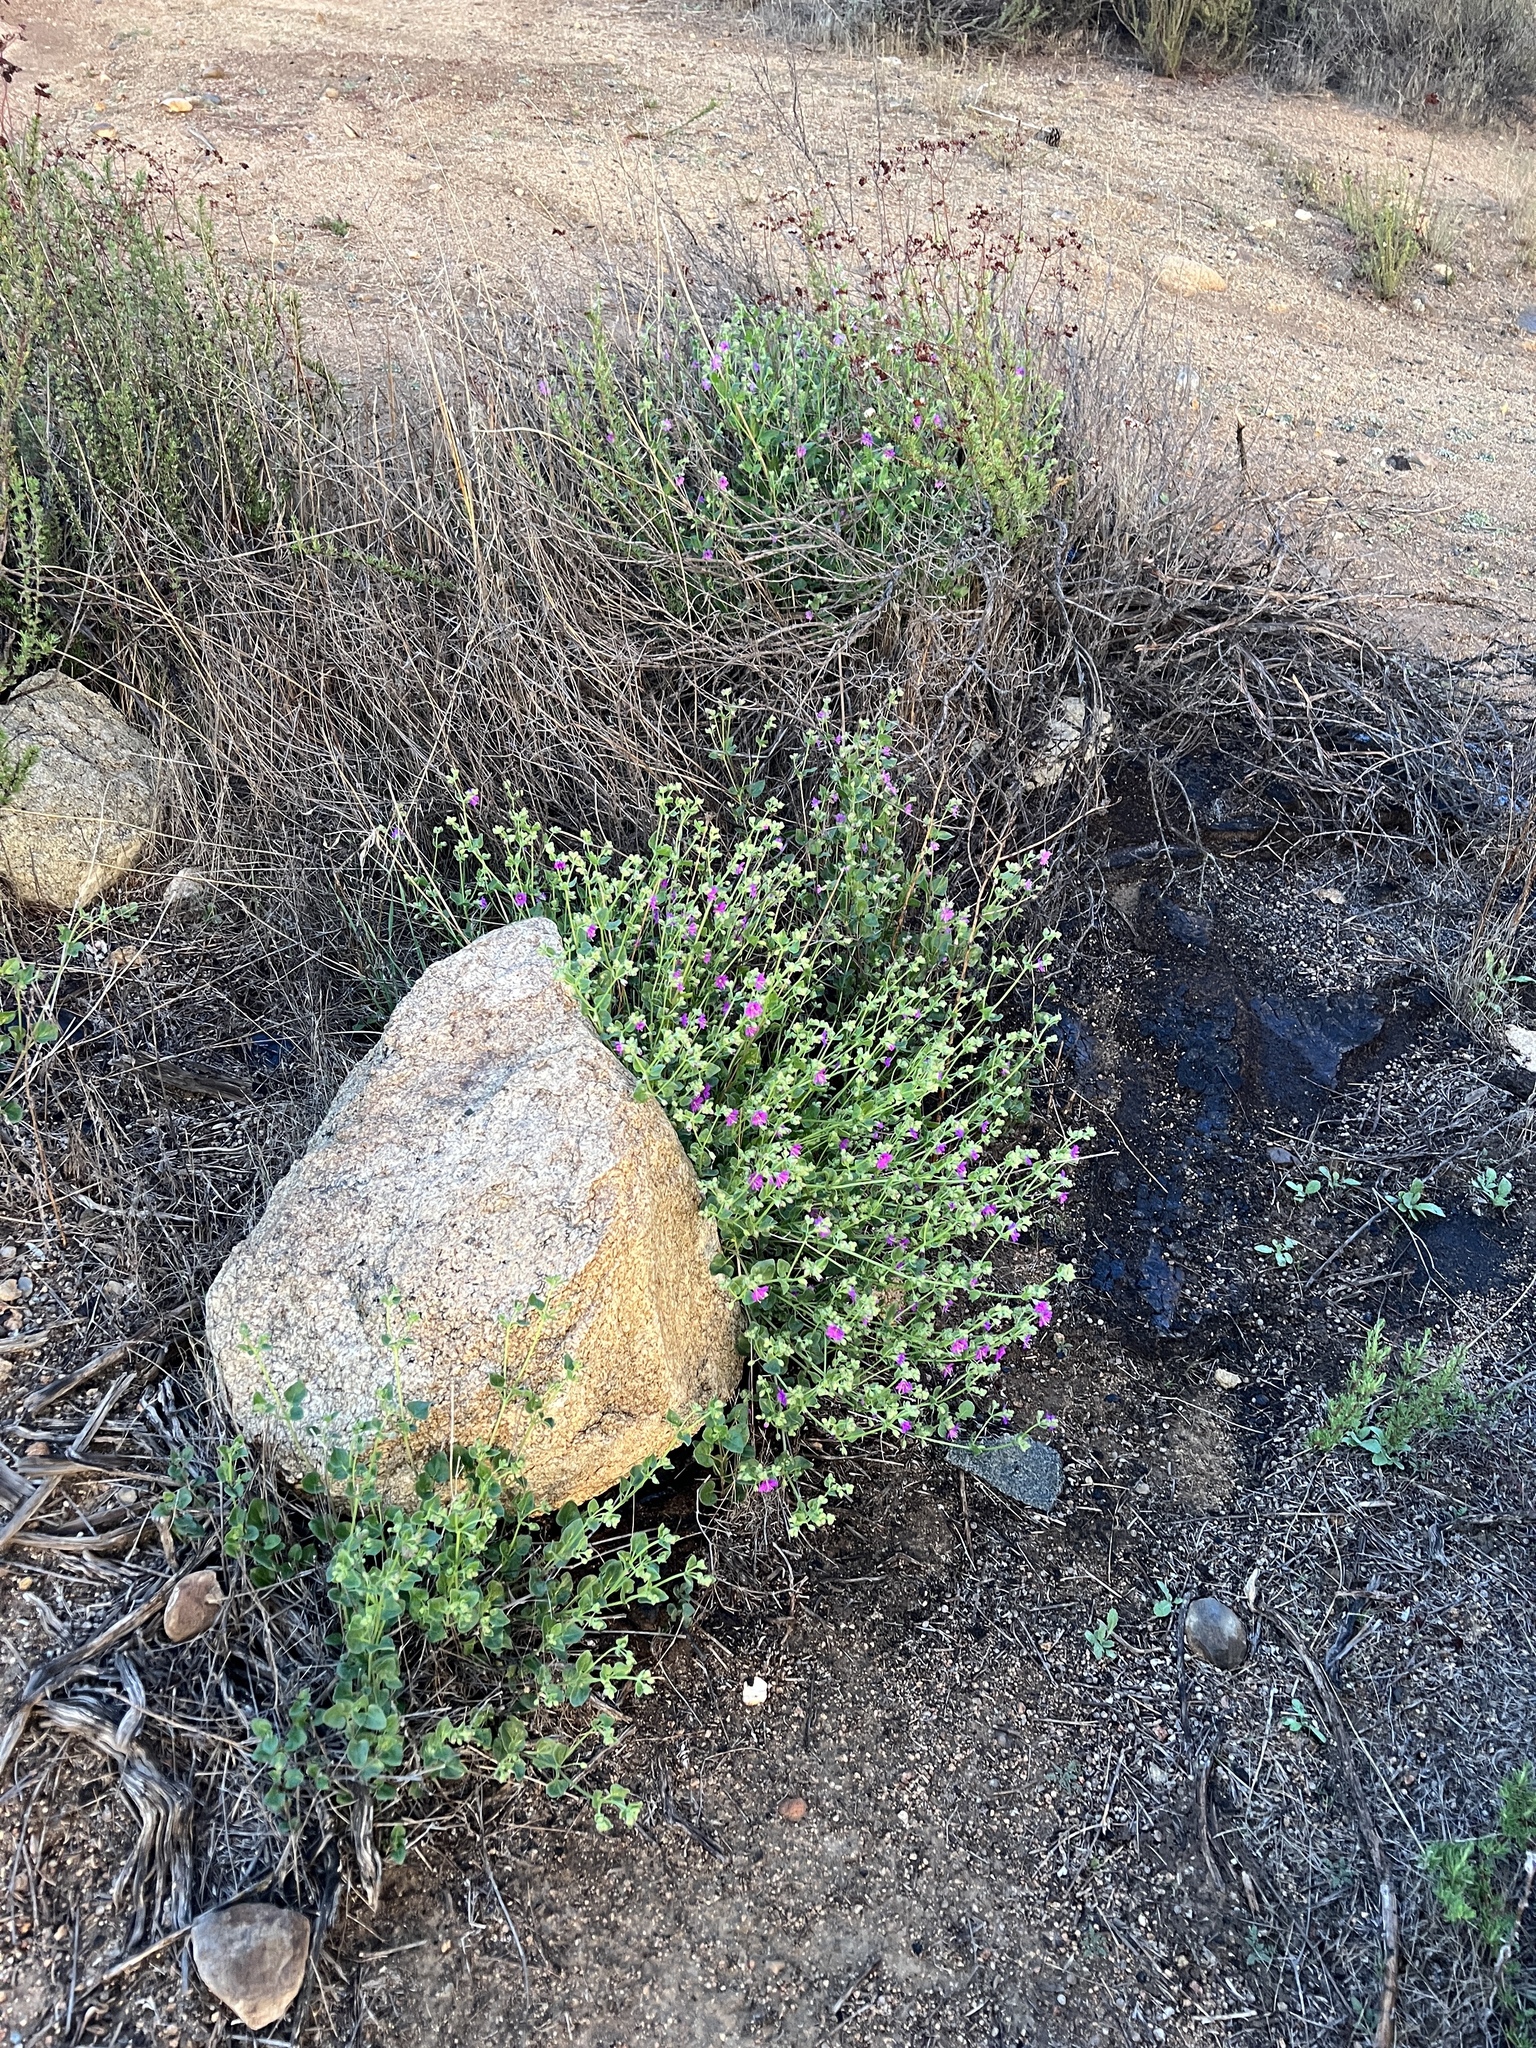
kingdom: Plantae
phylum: Tracheophyta
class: Magnoliopsida
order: Caryophyllales
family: Nyctaginaceae
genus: Mirabilis
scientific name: Mirabilis laevis
